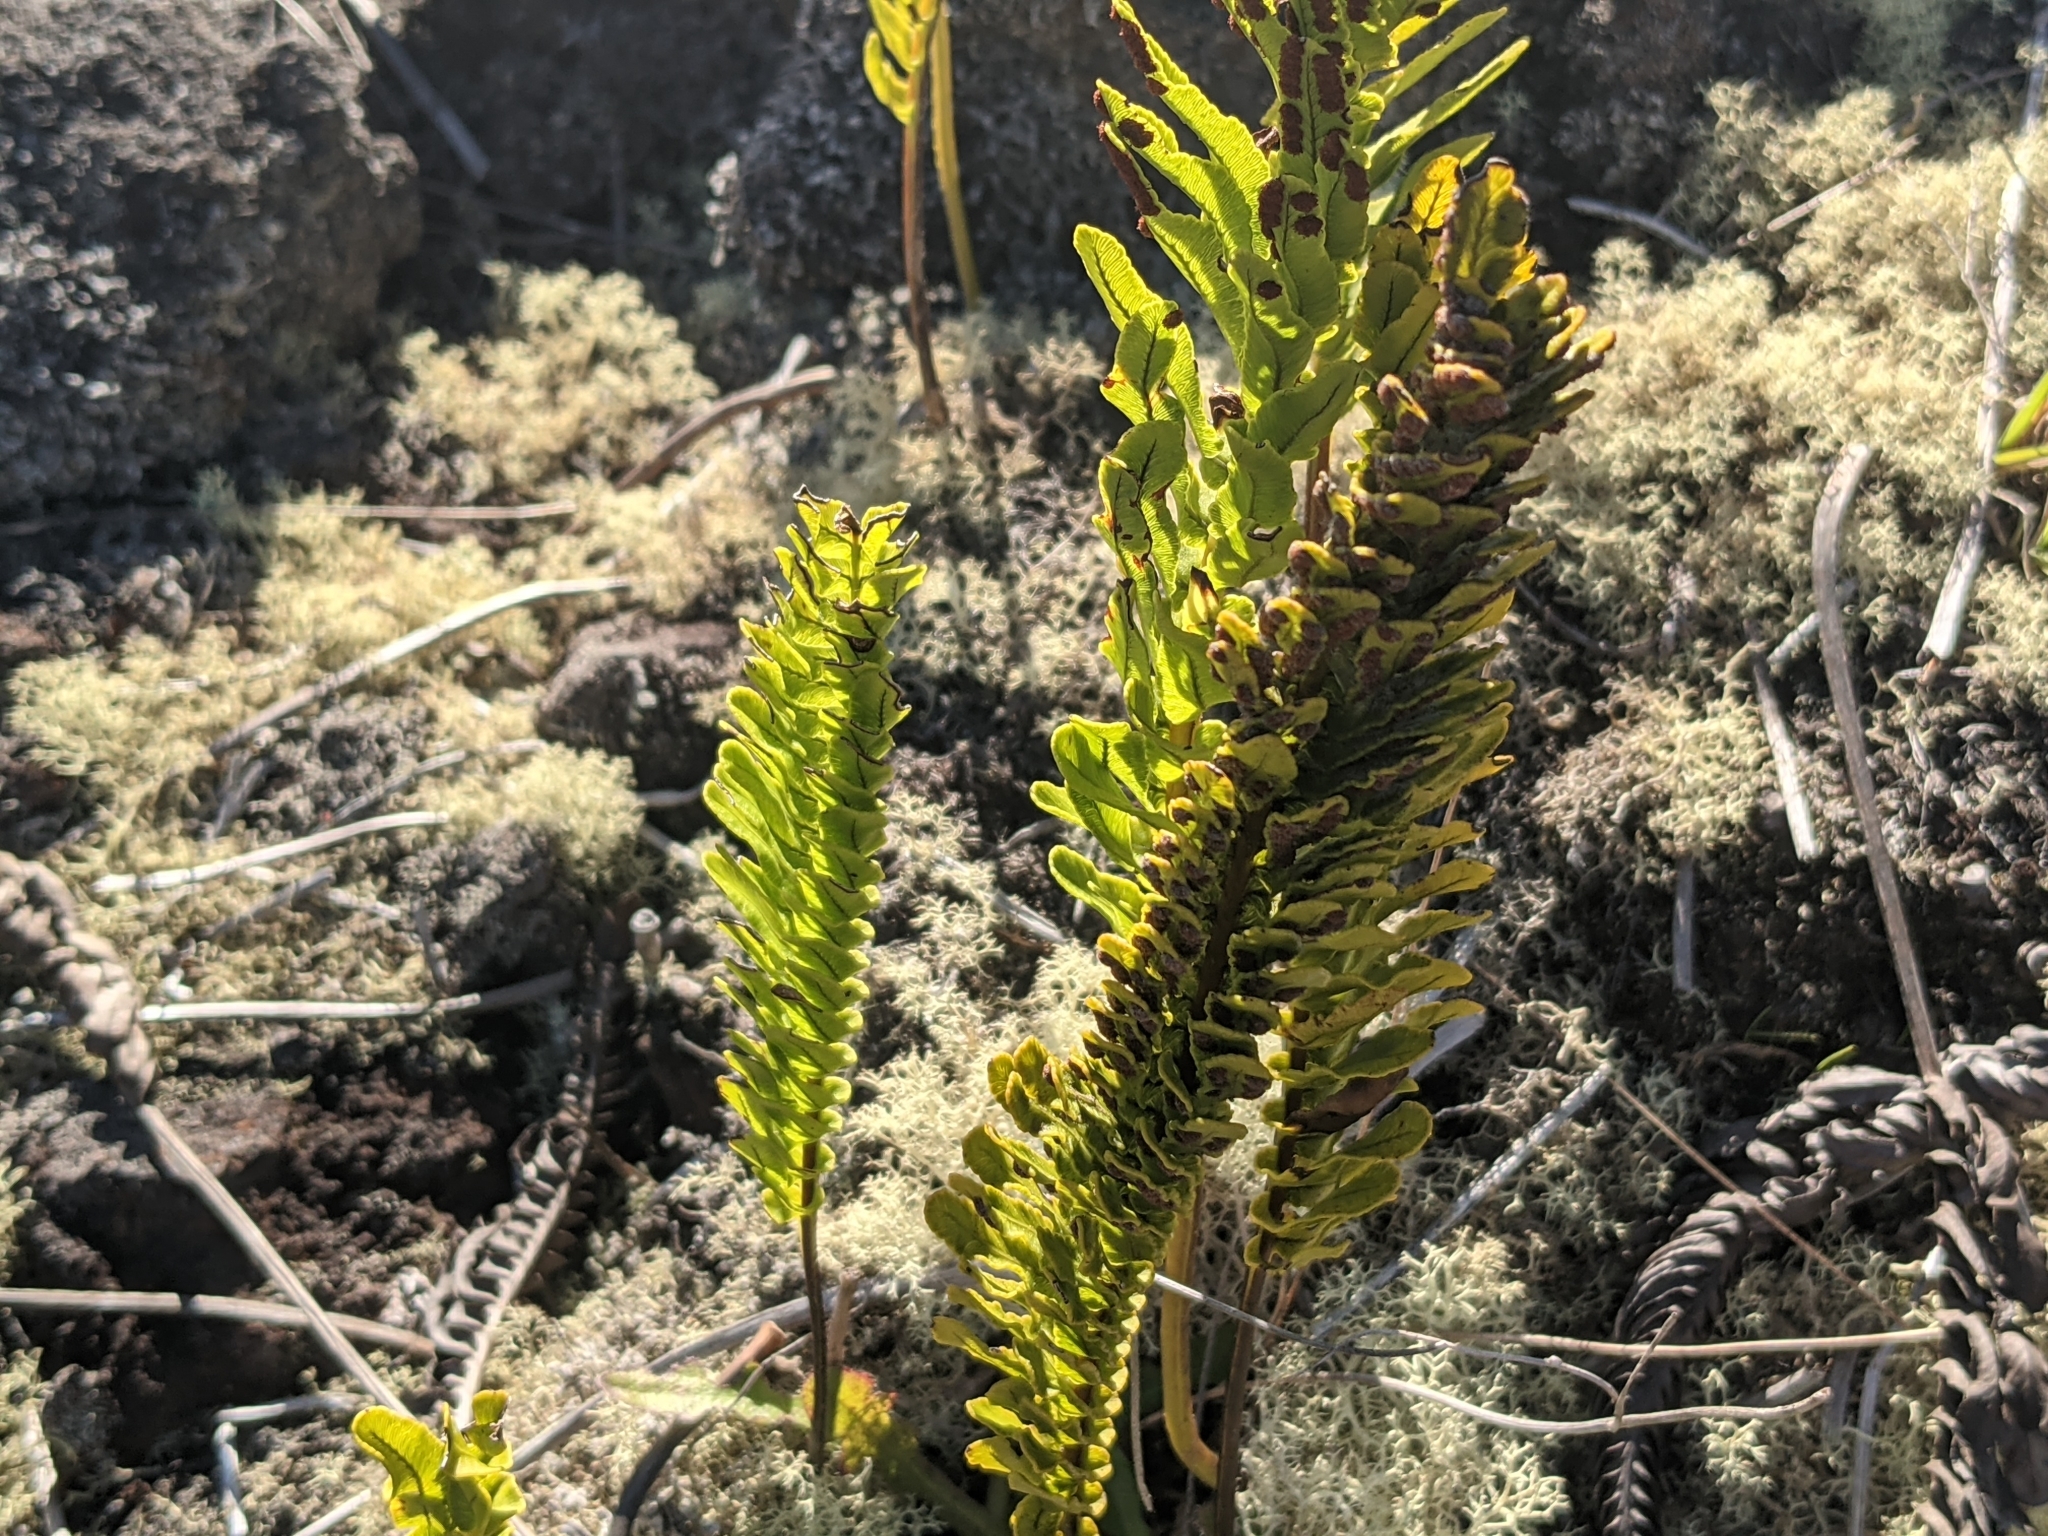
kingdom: Plantae
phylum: Tracheophyta
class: Polypodiopsida
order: Polypodiales
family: Polypodiaceae
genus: Polypodium
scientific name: Polypodium pellucidum
